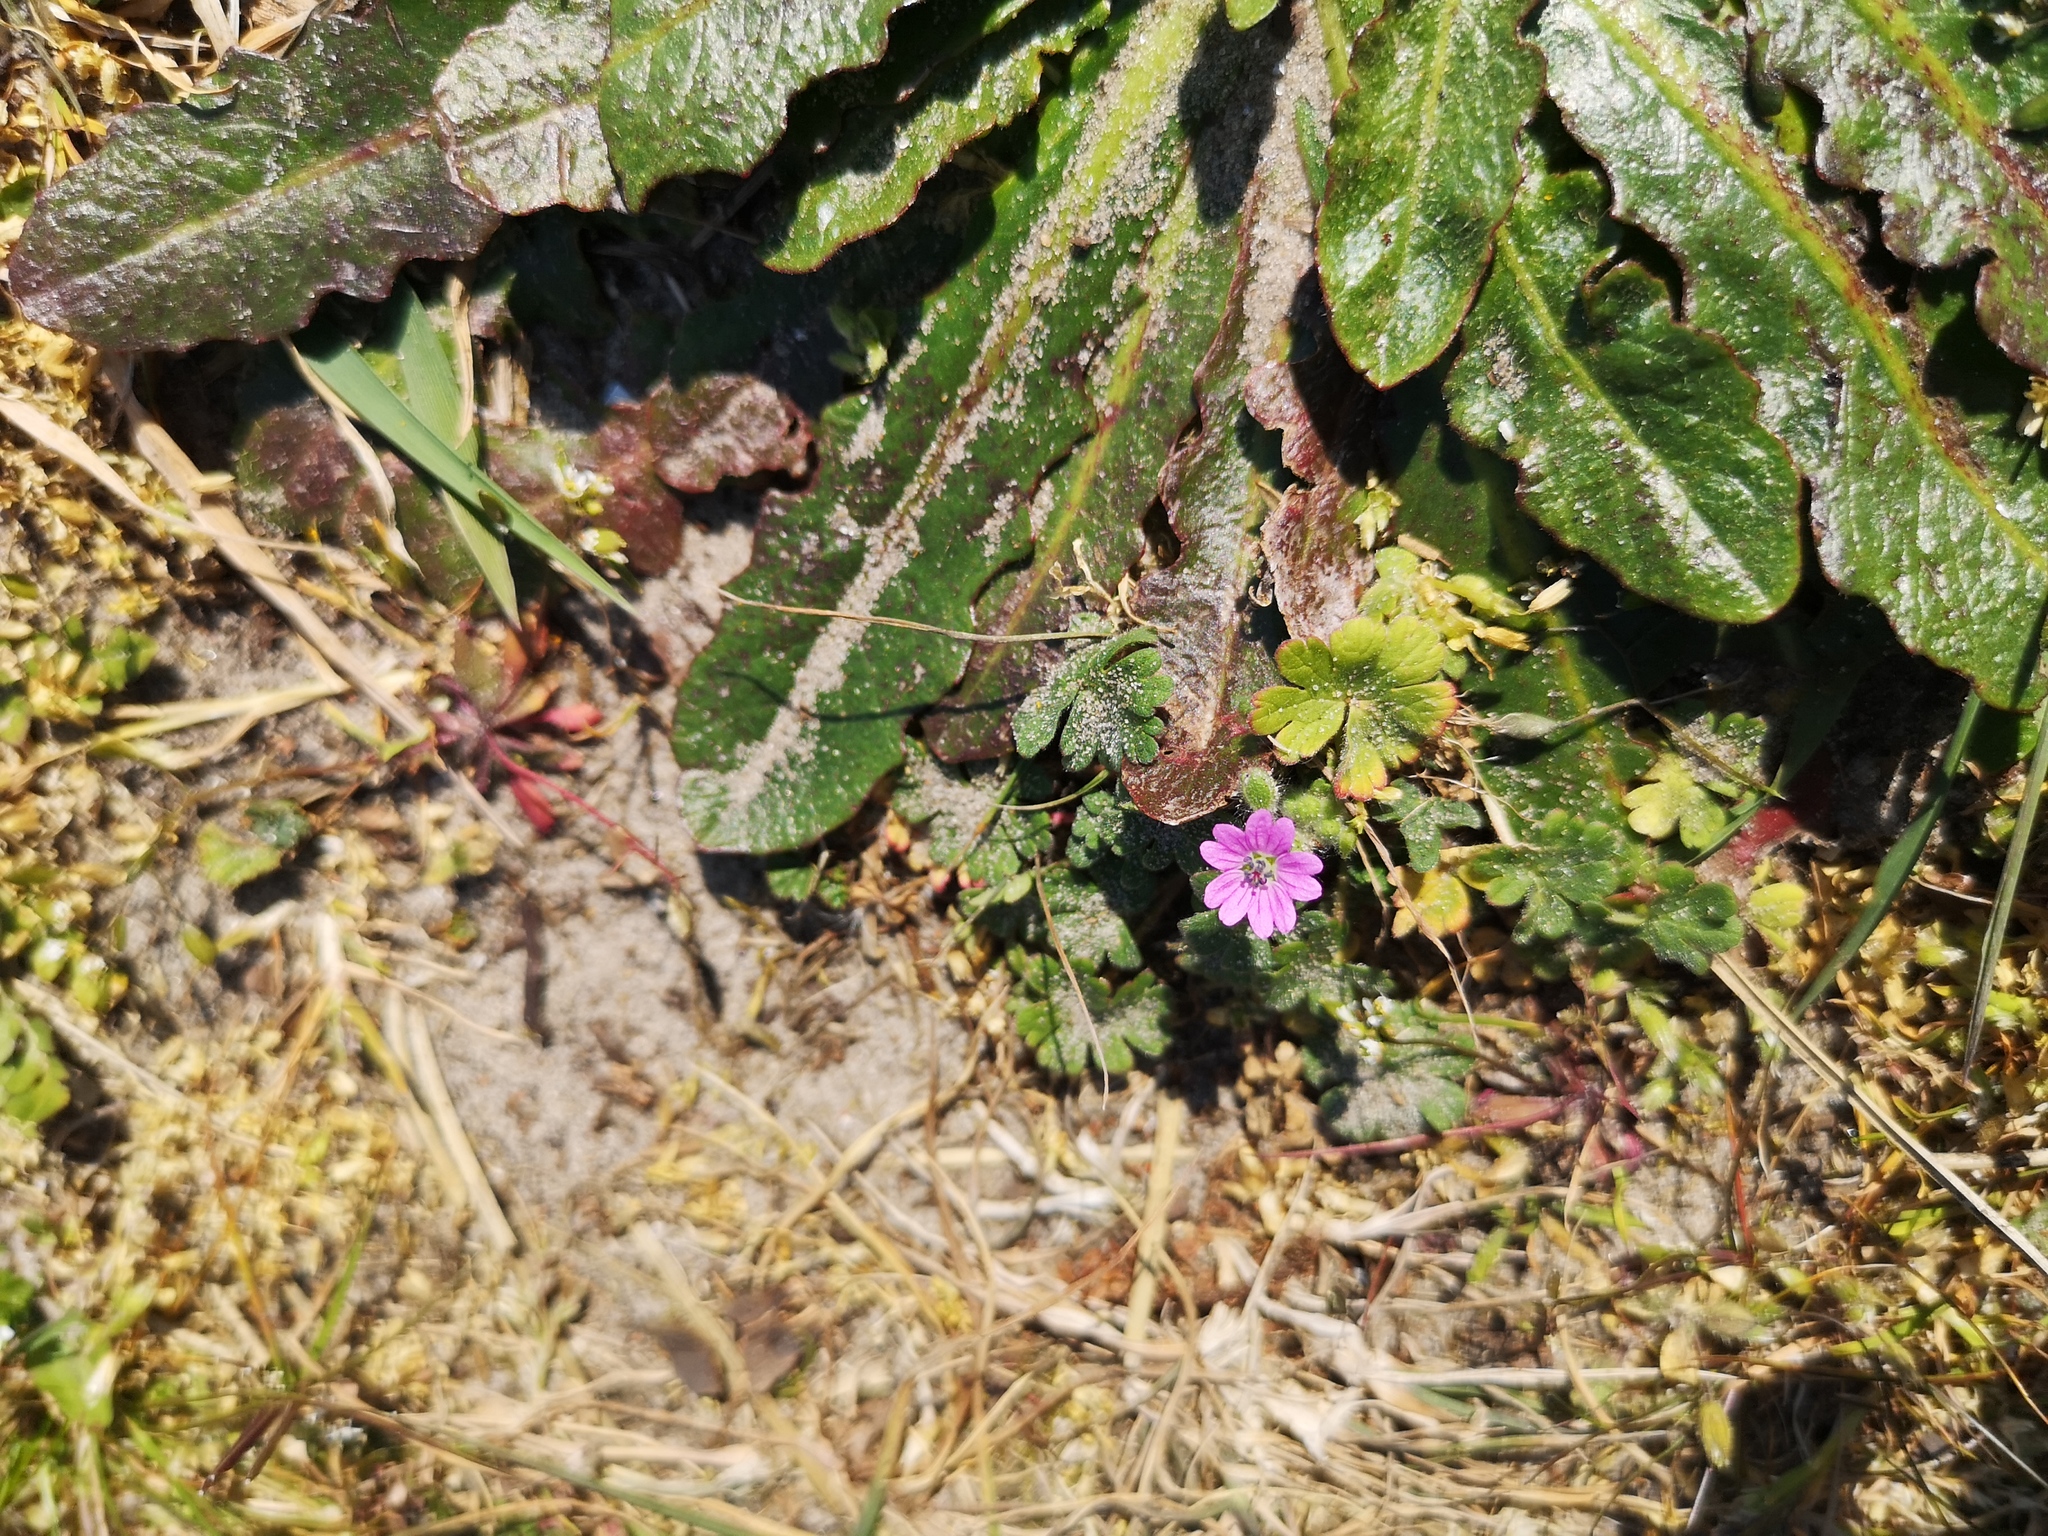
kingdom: Plantae
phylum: Tracheophyta
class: Magnoliopsida
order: Geraniales
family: Geraniaceae
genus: Geranium
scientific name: Geranium molle
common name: Dove's-foot crane's-bill
